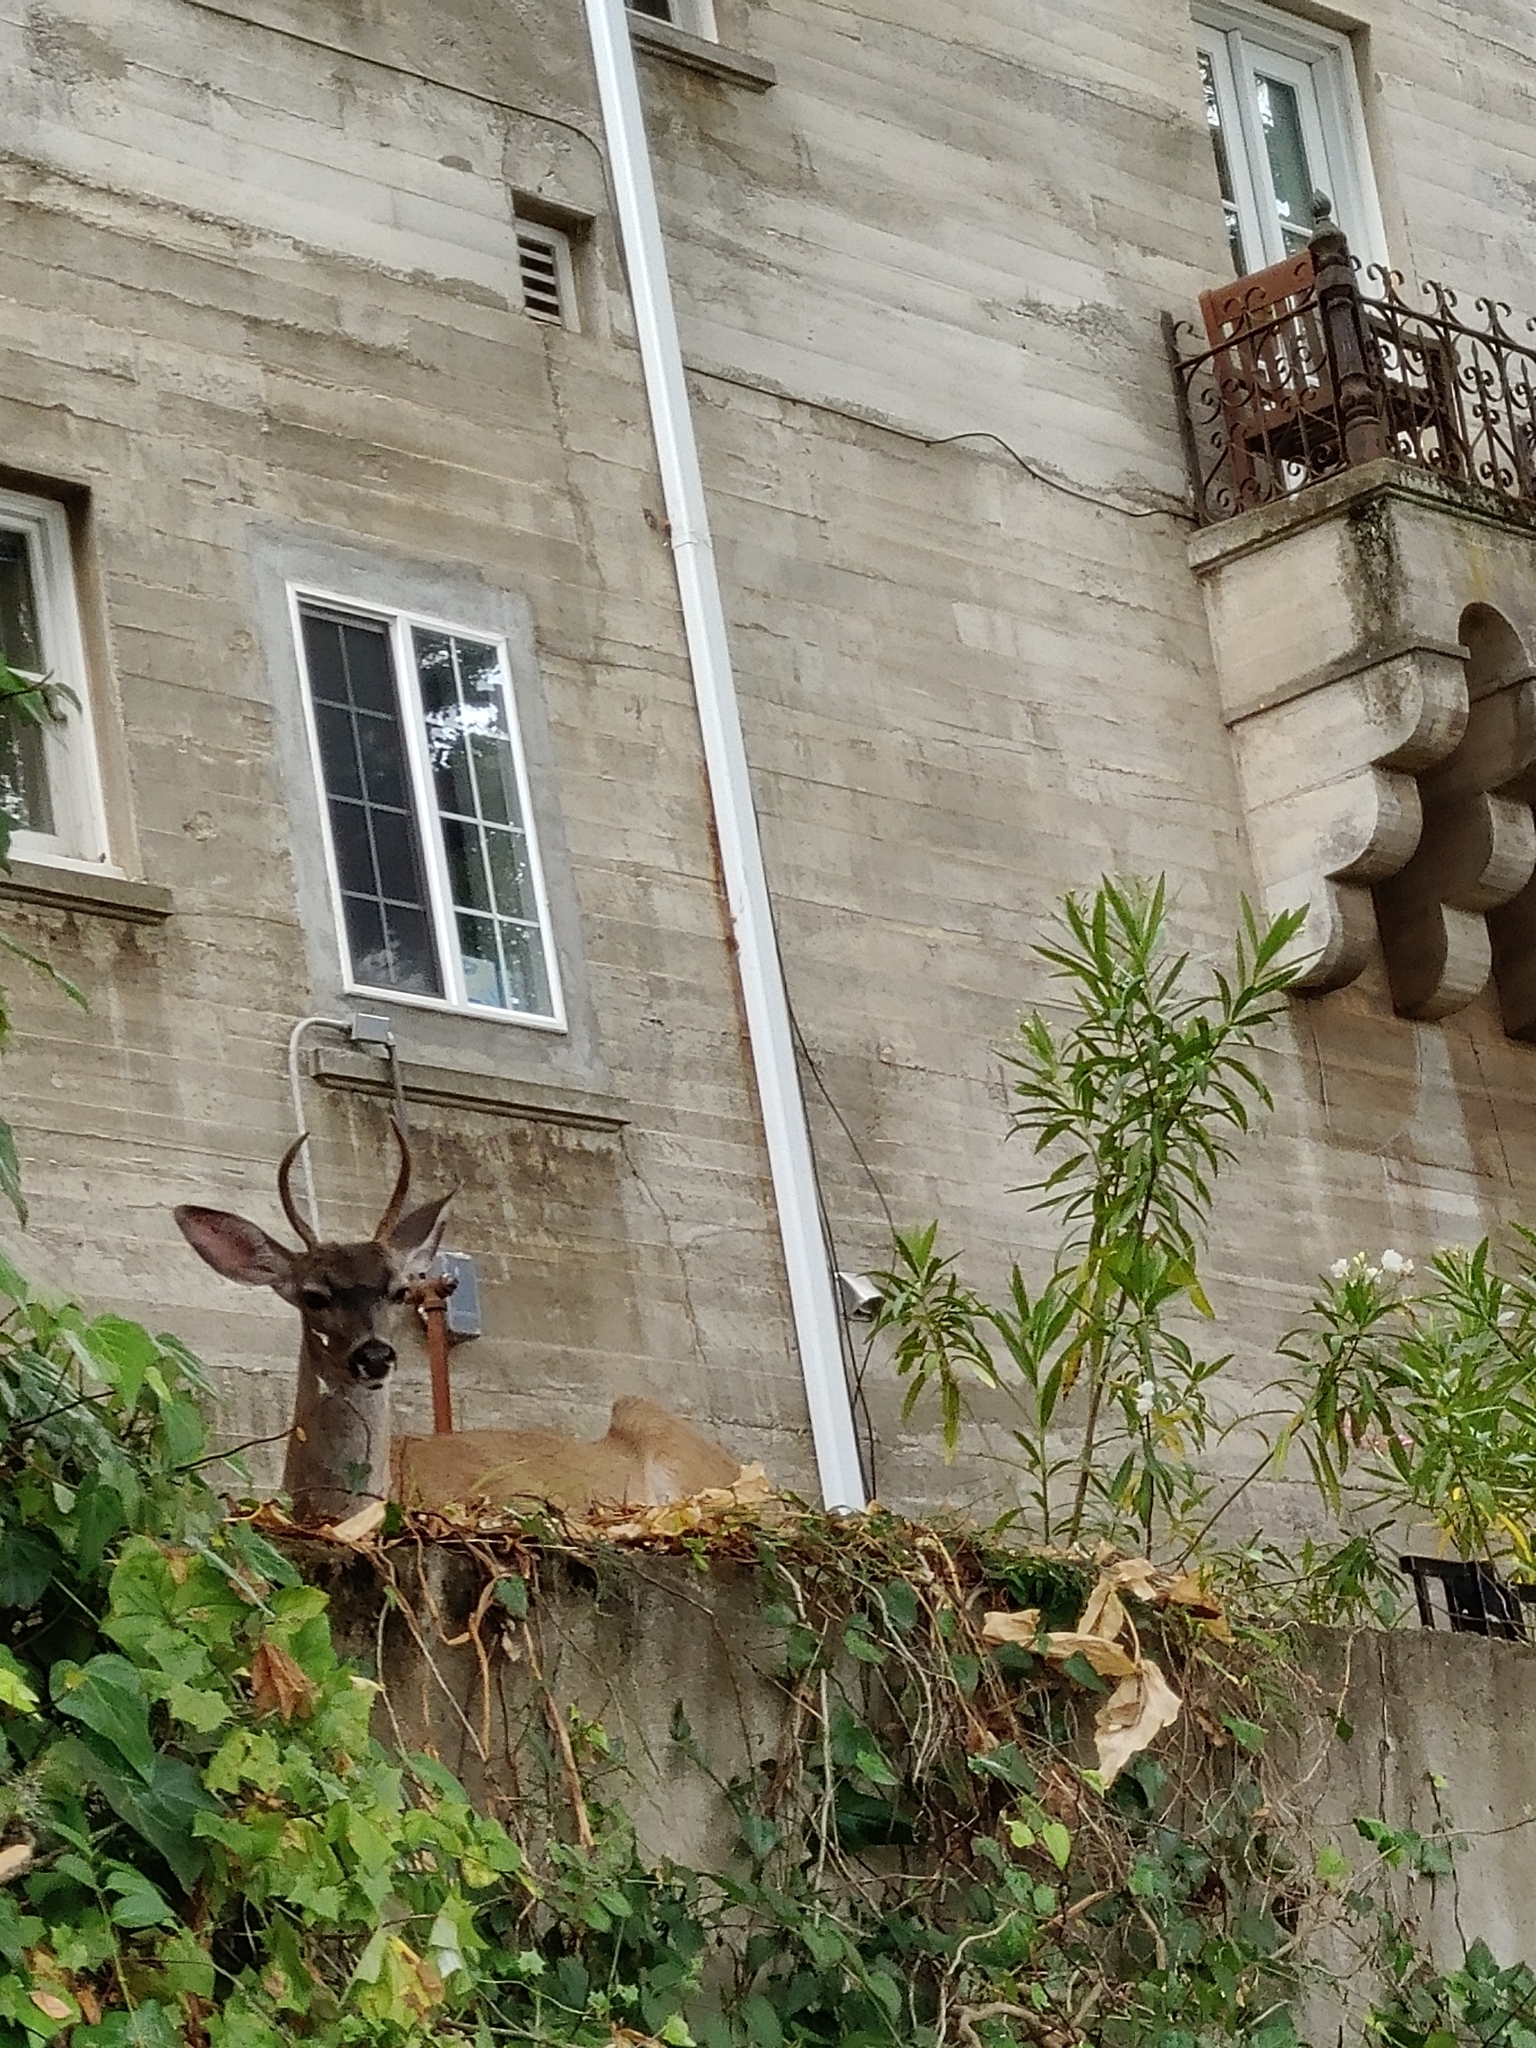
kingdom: Animalia
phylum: Chordata
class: Mammalia
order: Artiodactyla
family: Cervidae
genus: Odocoileus
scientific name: Odocoileus hemionus
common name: Mule deer
